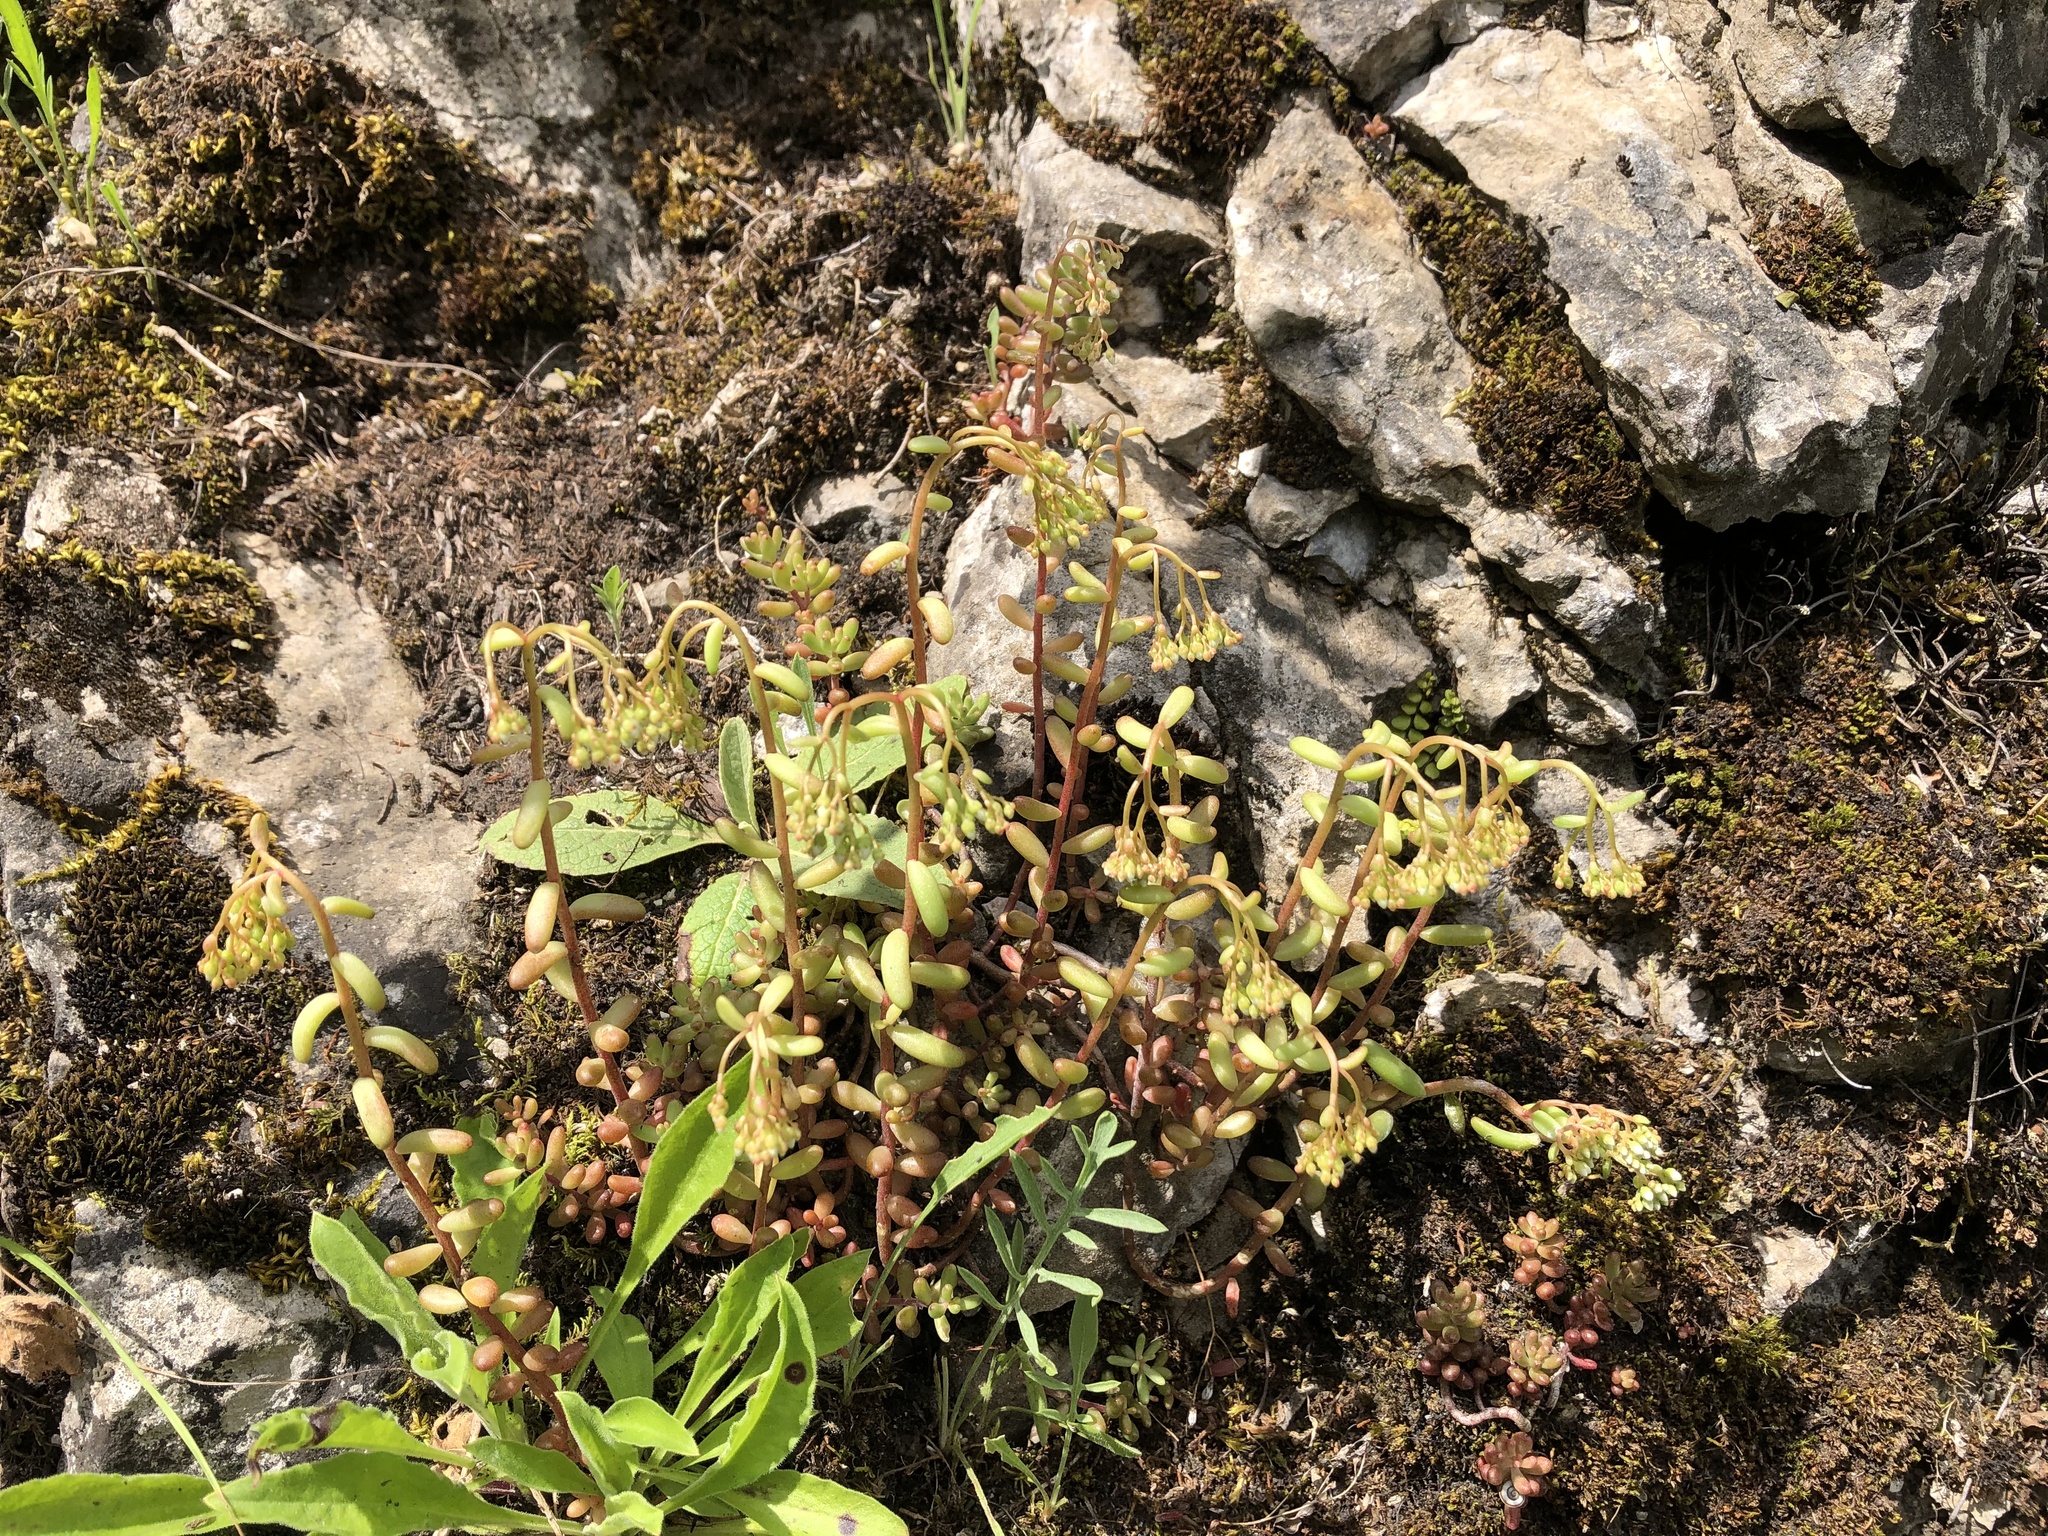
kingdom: Plantae
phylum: Tracheophyta
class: Magnoliopsida
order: Saxifragales
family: Crassulaceae
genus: Sedum
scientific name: Sedum album
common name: White stonecrop
